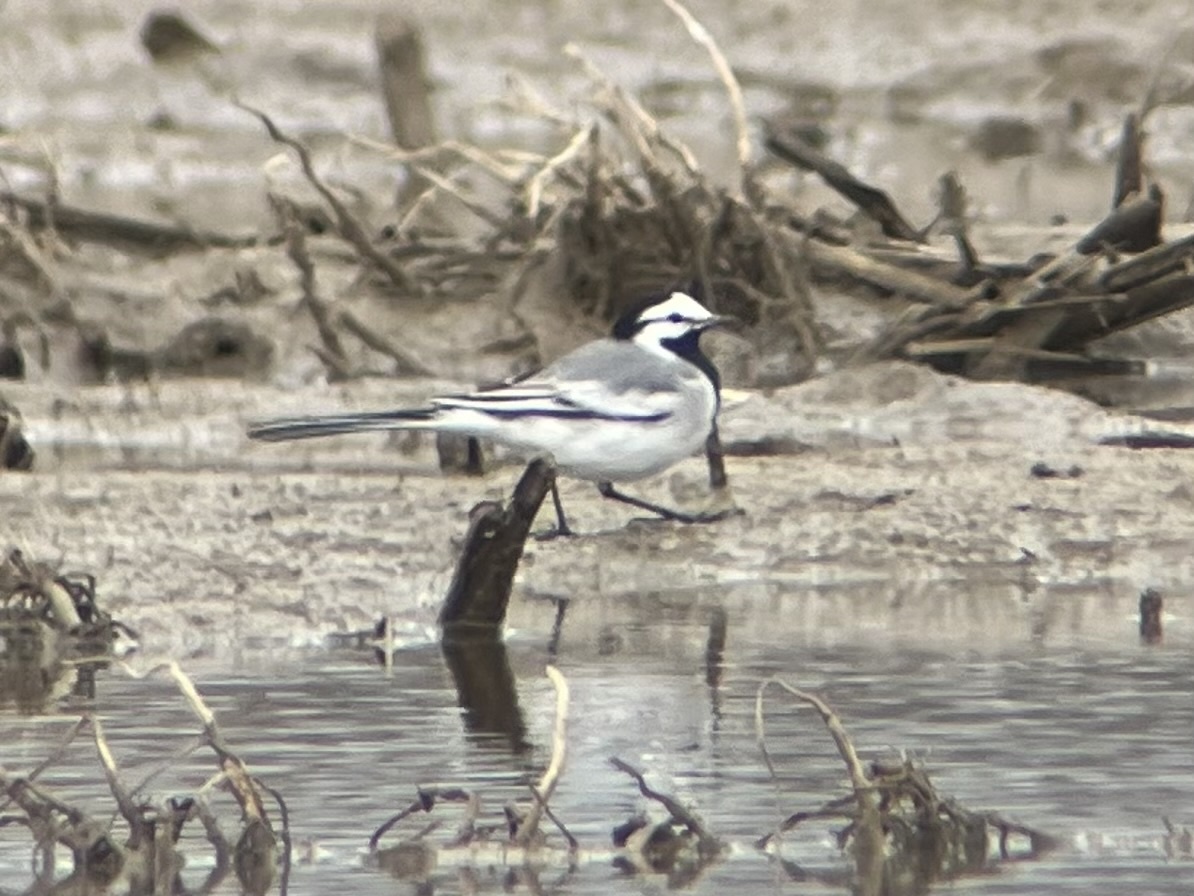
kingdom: Animalia
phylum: Chordata
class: Aves
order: Passeriformes
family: Motacillidae
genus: Motacilla
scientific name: Motacilla alba
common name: White wagtail
